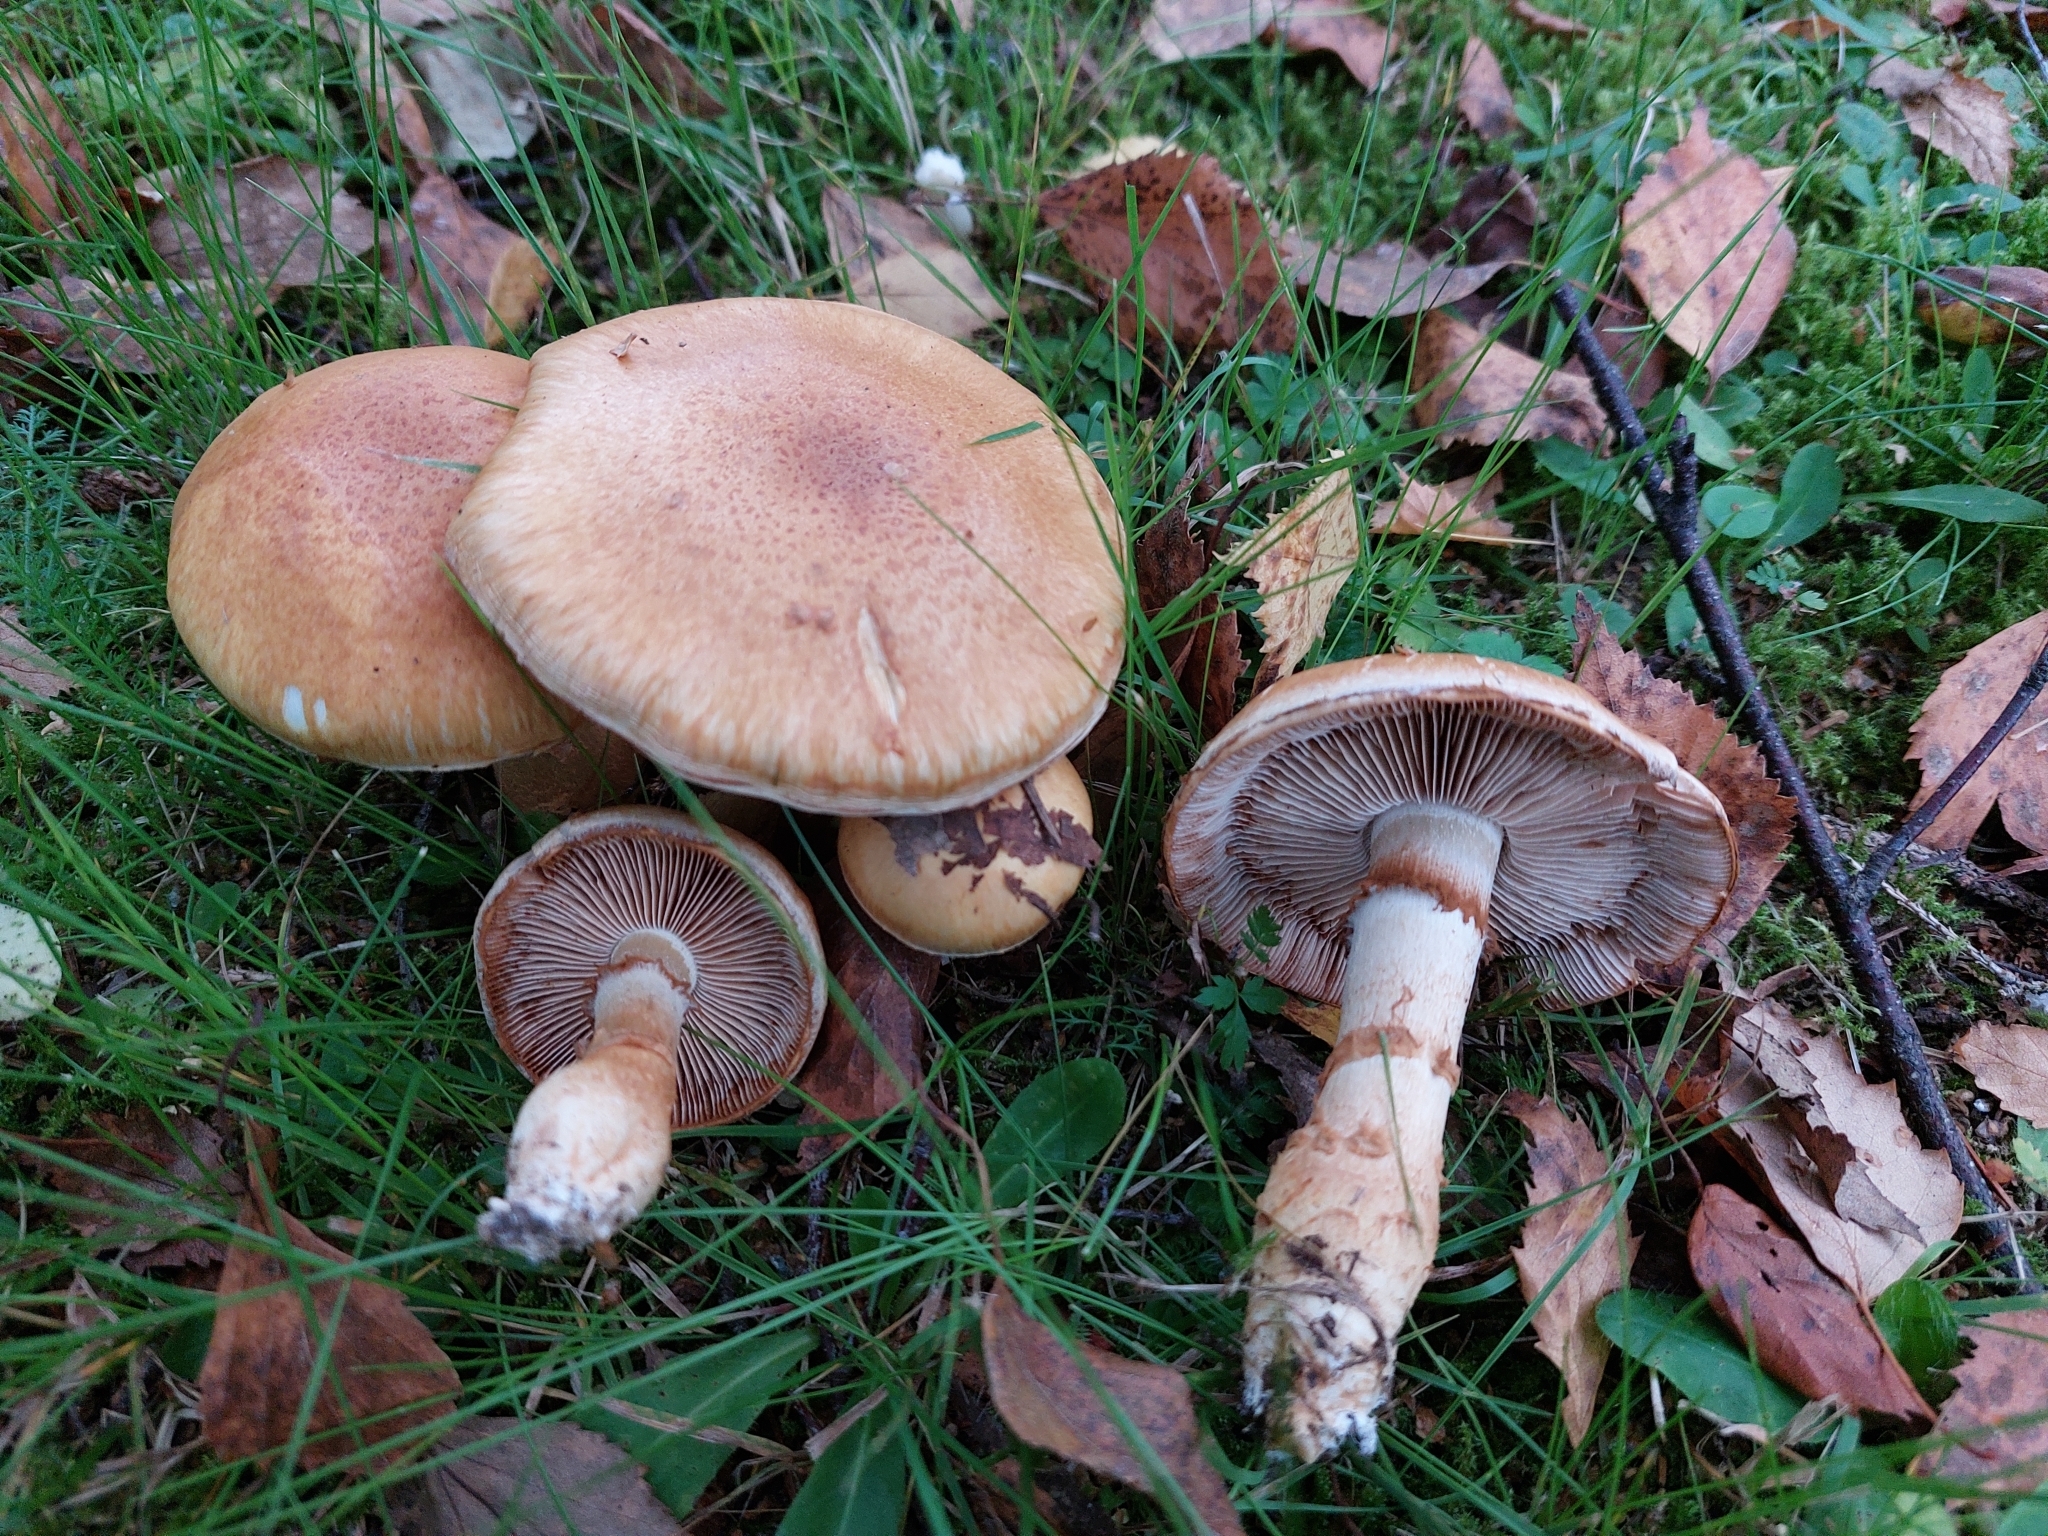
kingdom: Fungi
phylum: Basidiomycota
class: Agaricomycetes
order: Agaricales
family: Cortinariaceae
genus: Phlegmacium
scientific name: Phlegmacium triumphans
